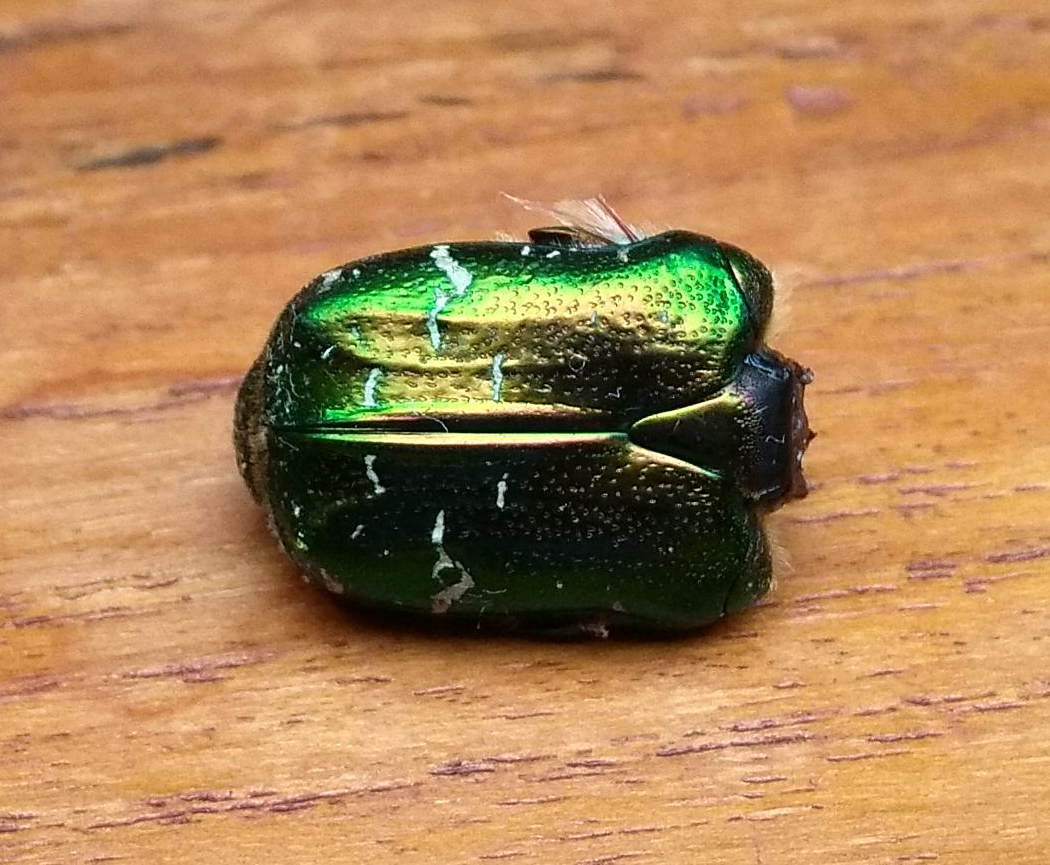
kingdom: Animalia
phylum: Arthropoda
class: Insecta
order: Coleoptera
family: Scarabaeidae
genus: Cetonia
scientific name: Cetonia aurata
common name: Rose chafer
